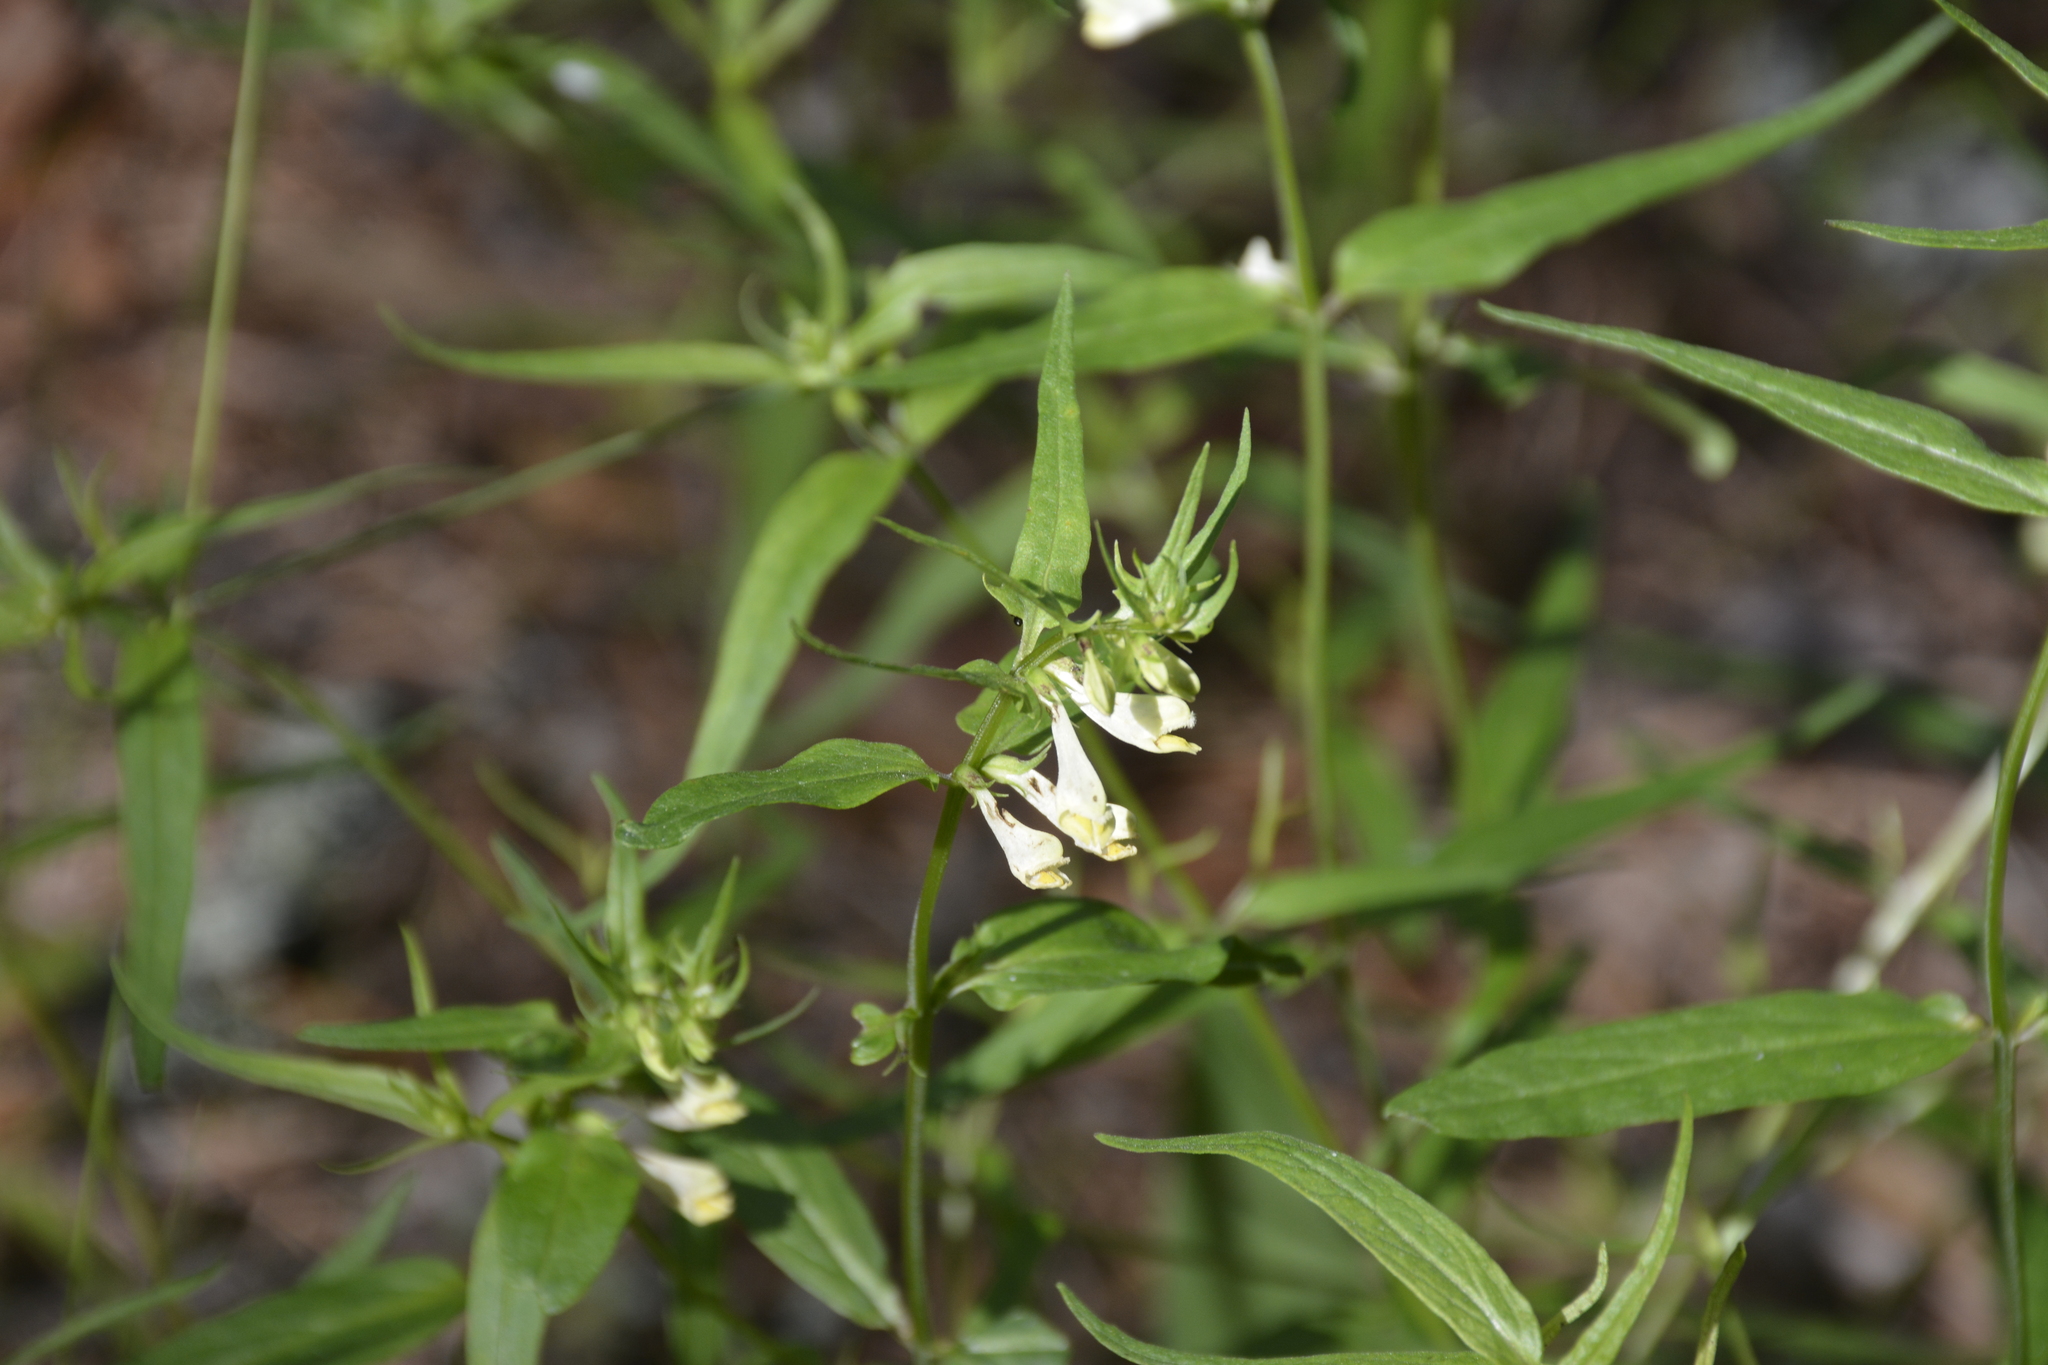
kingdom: Plantae
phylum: Tracheophyta
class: Magnoliopsida
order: Lamiales
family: Orobanchaceae
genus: Melampyrum
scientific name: Melampyrum pratense
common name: Common cow-wheat
